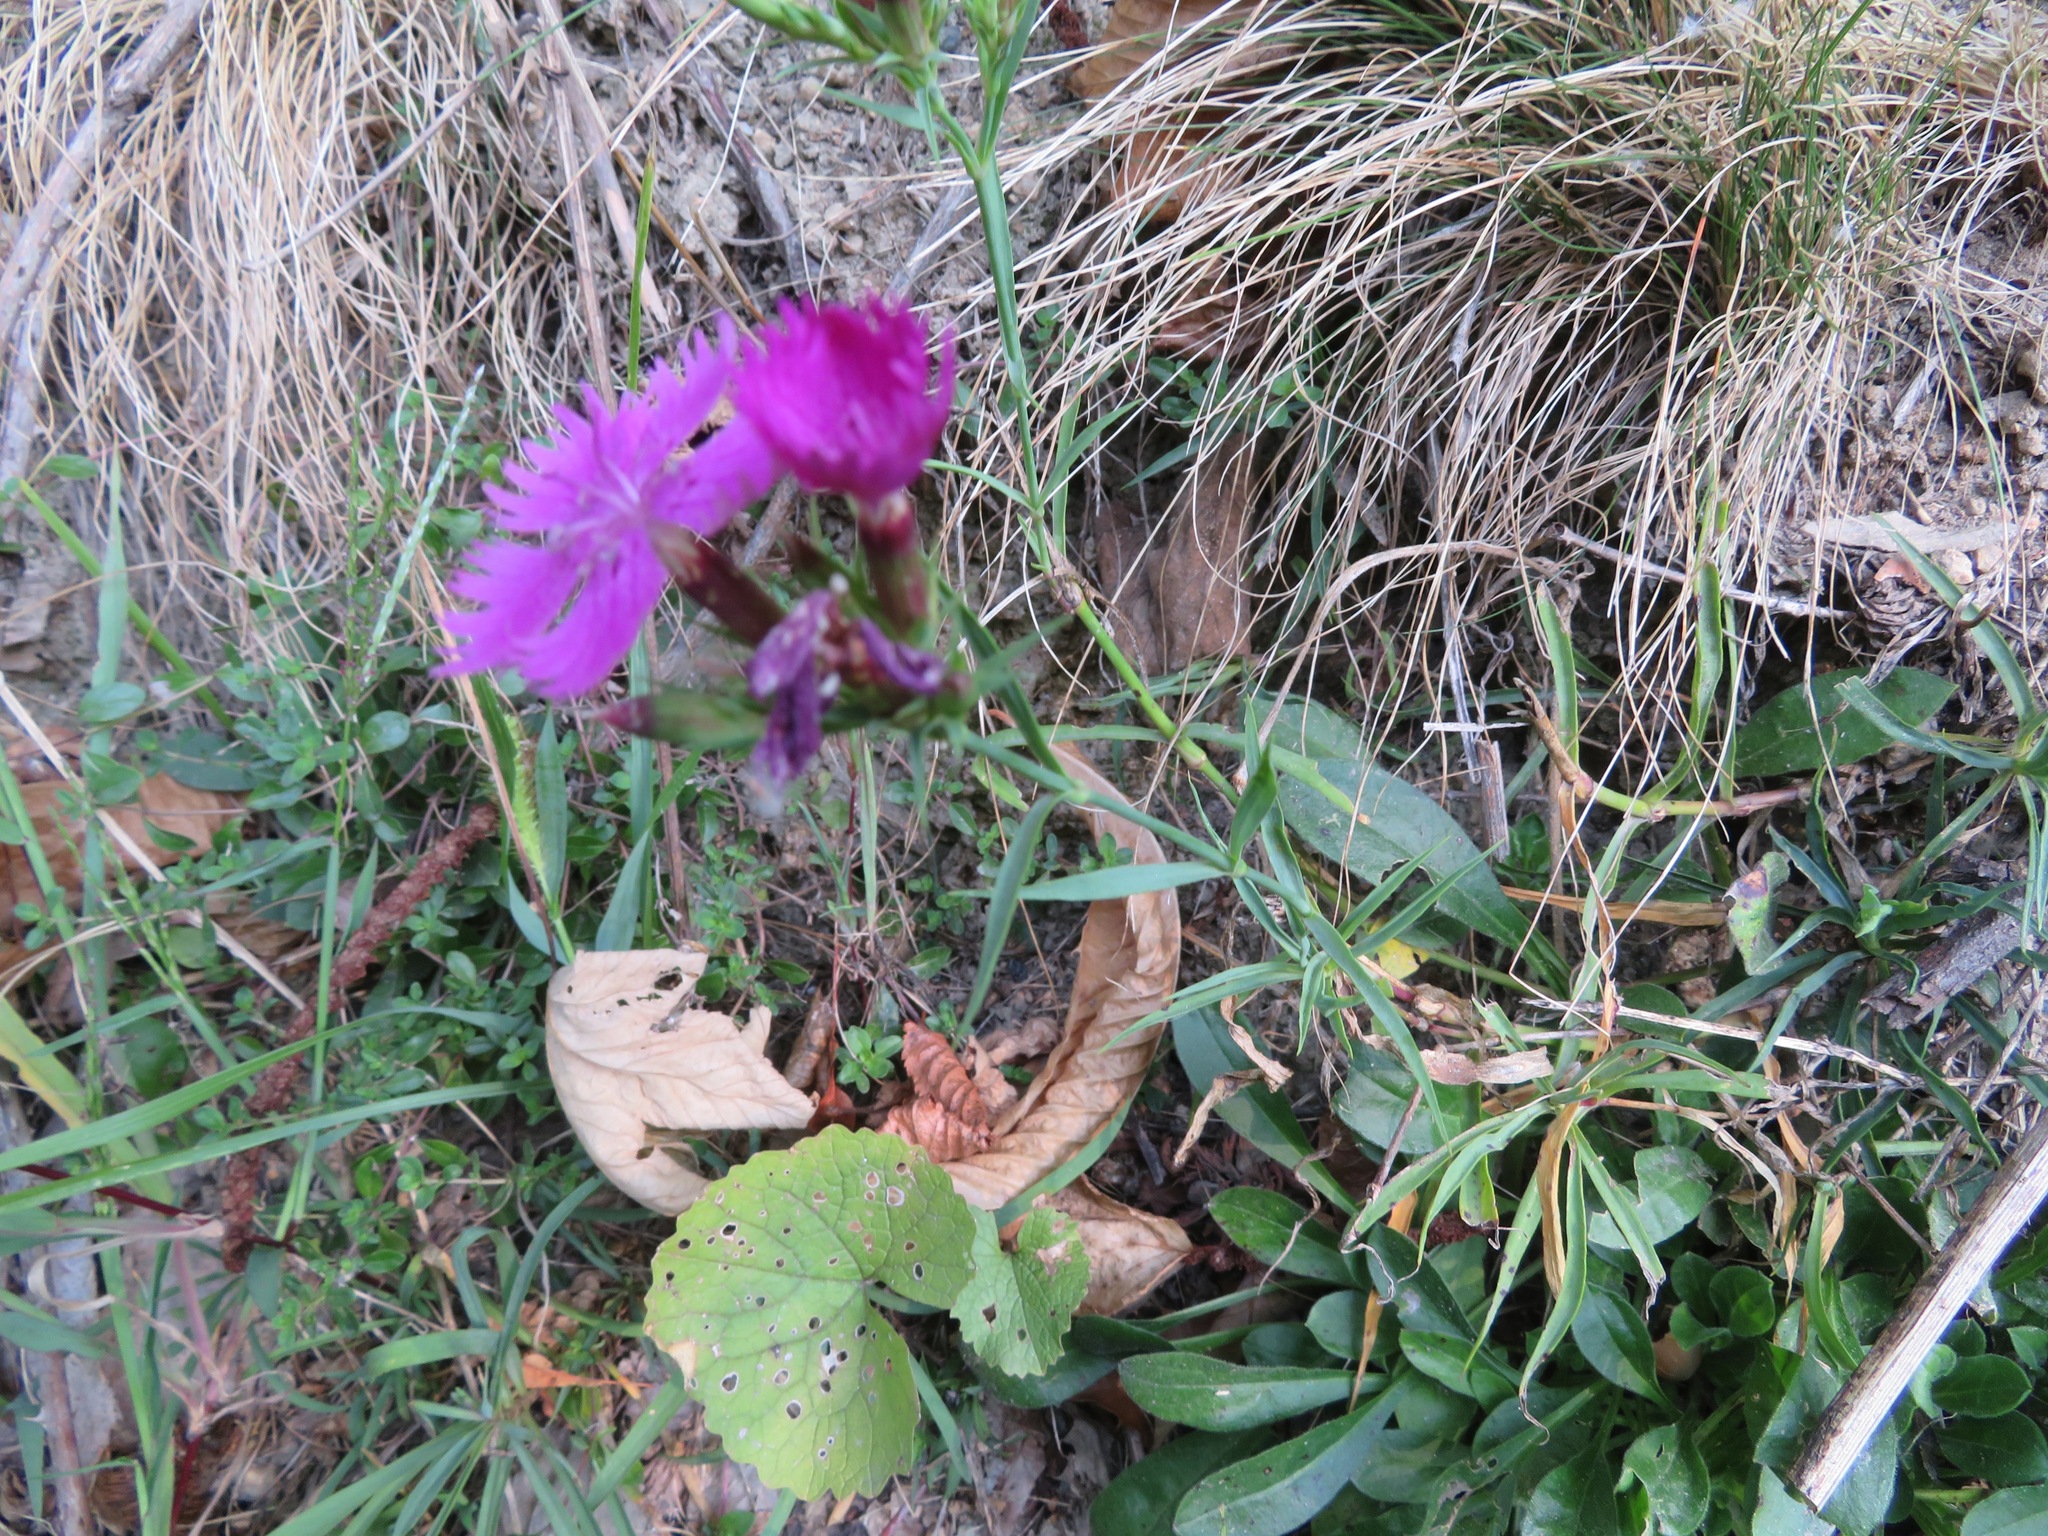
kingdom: Plantae
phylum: Tracheophyta
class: Magnoliopsida
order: Caryophyllales
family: Caryophyllaceae
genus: Dianthus
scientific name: Dianthus seguieri
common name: Ragged pink
